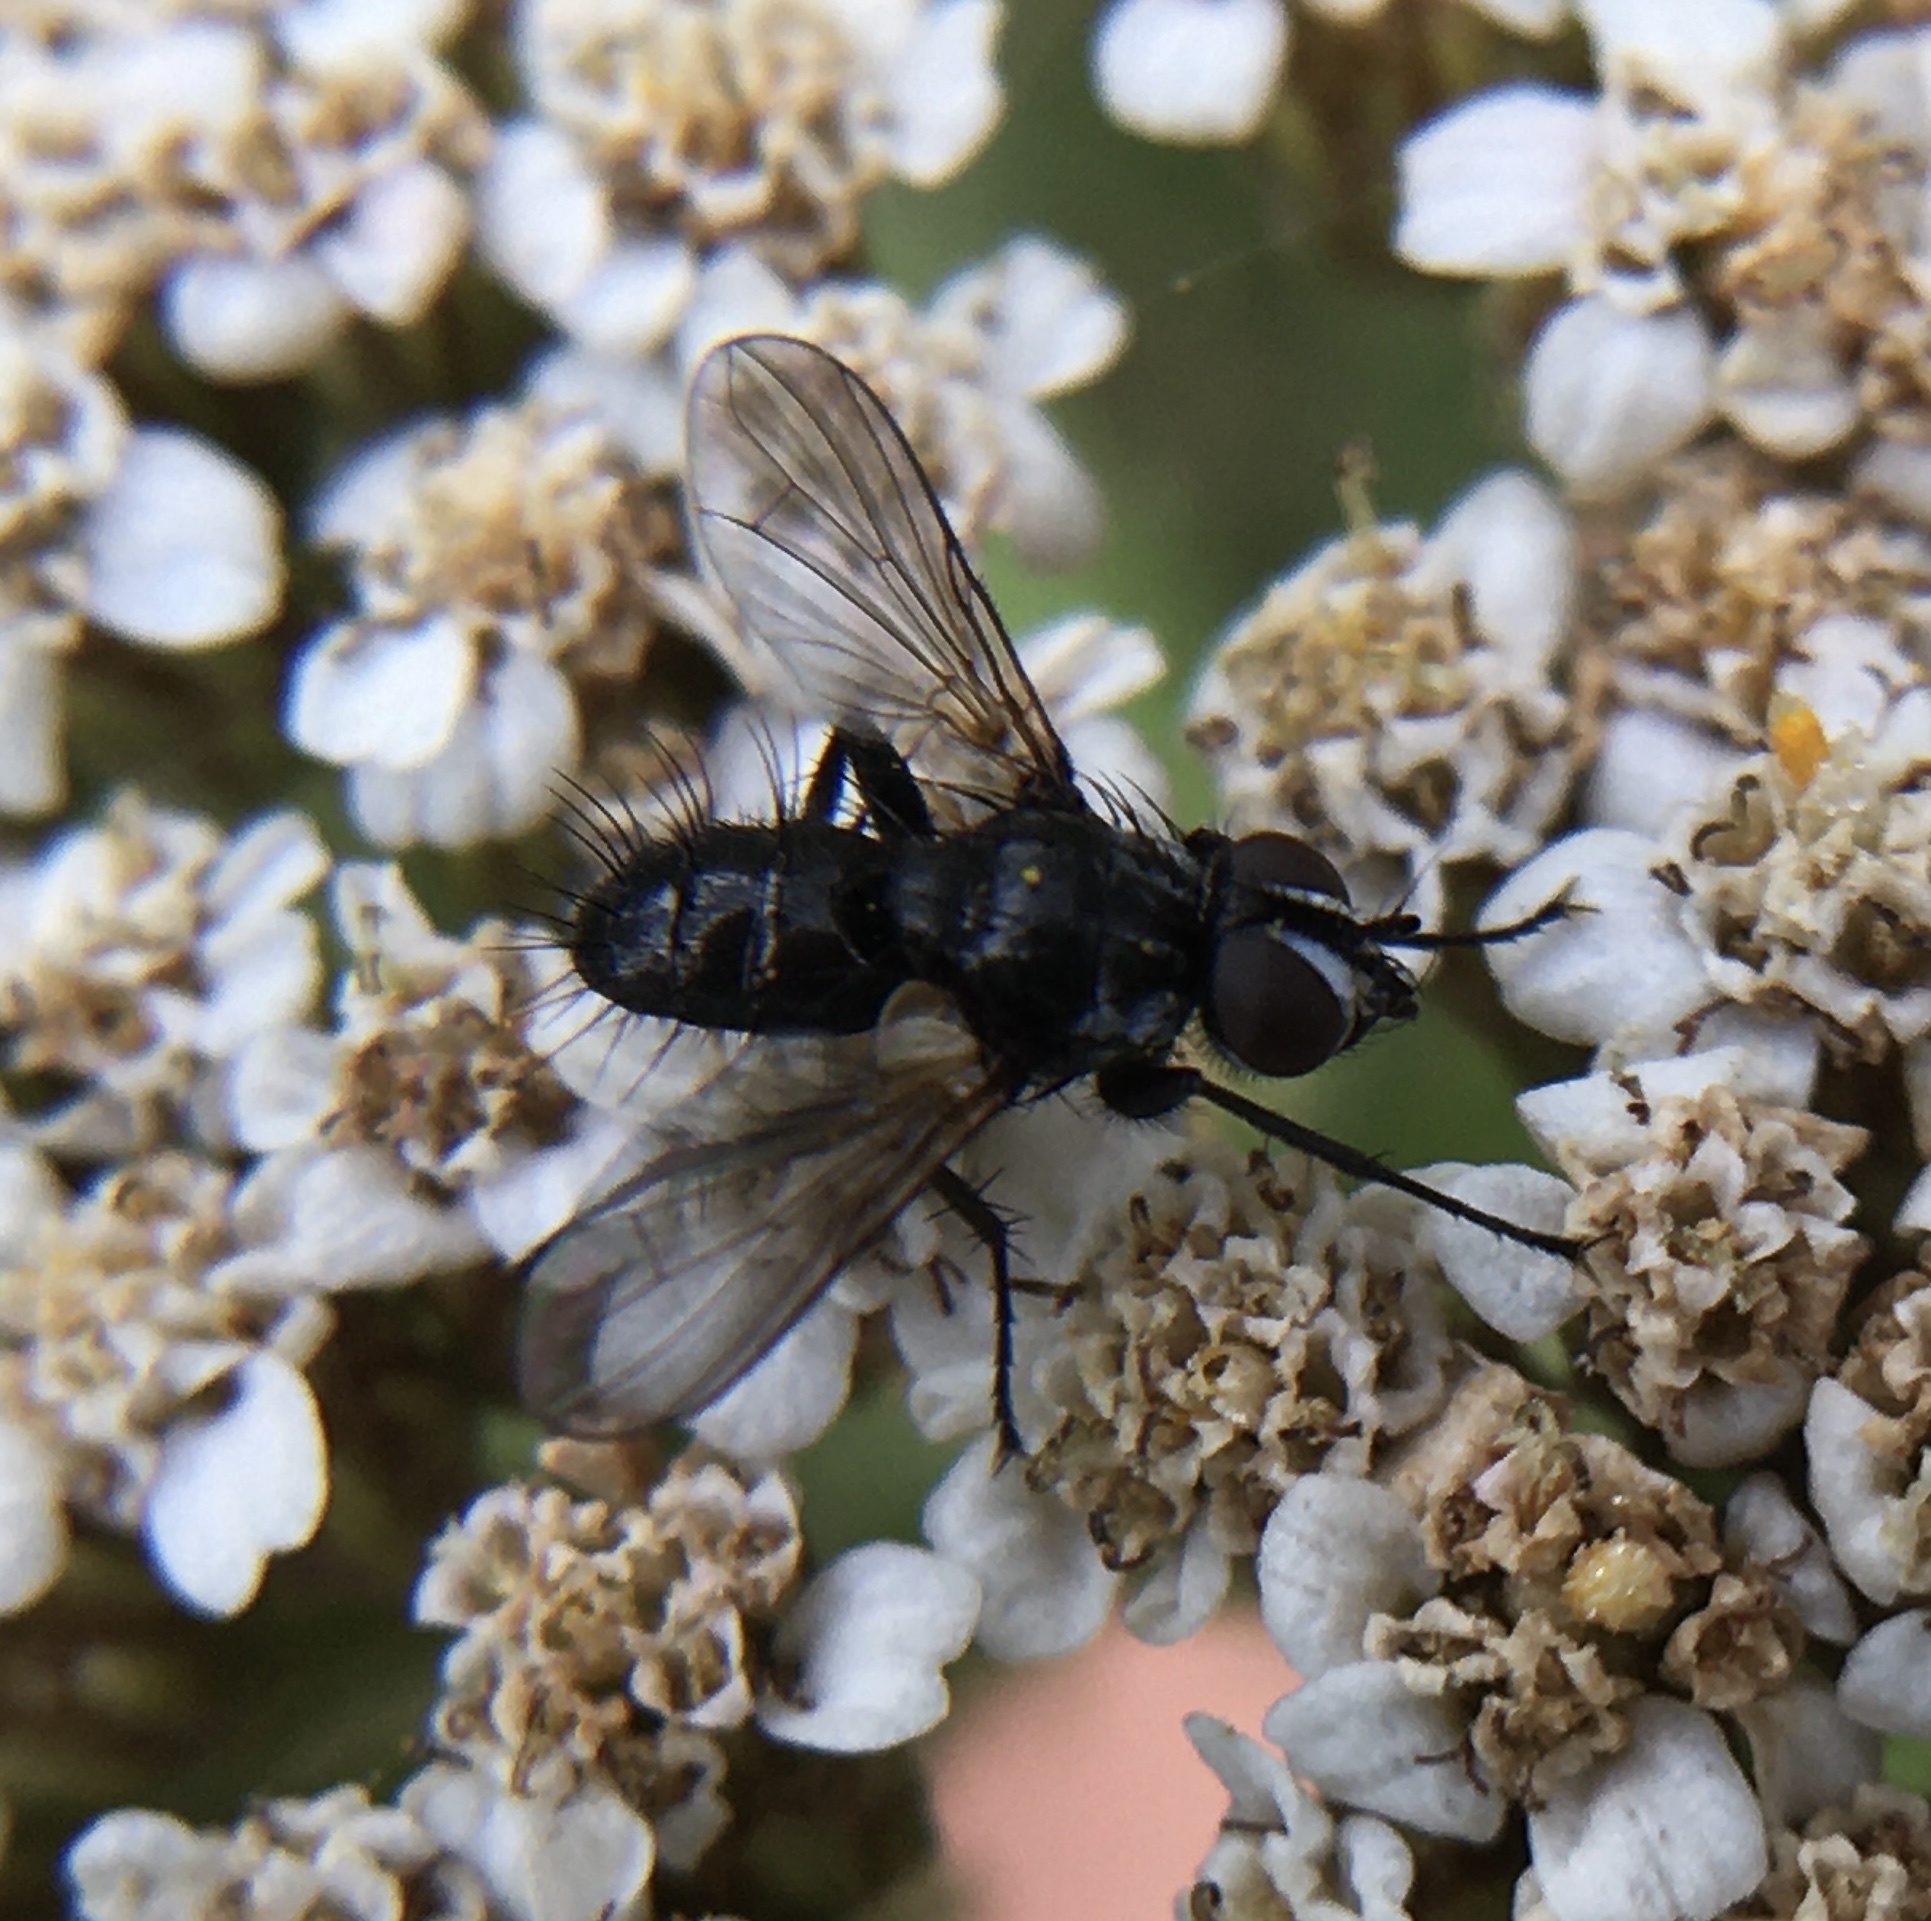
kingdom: Animalia
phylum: Arthropoda
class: Insecta
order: Diptera
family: Tachinidae
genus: Phania
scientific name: Phania funesta
